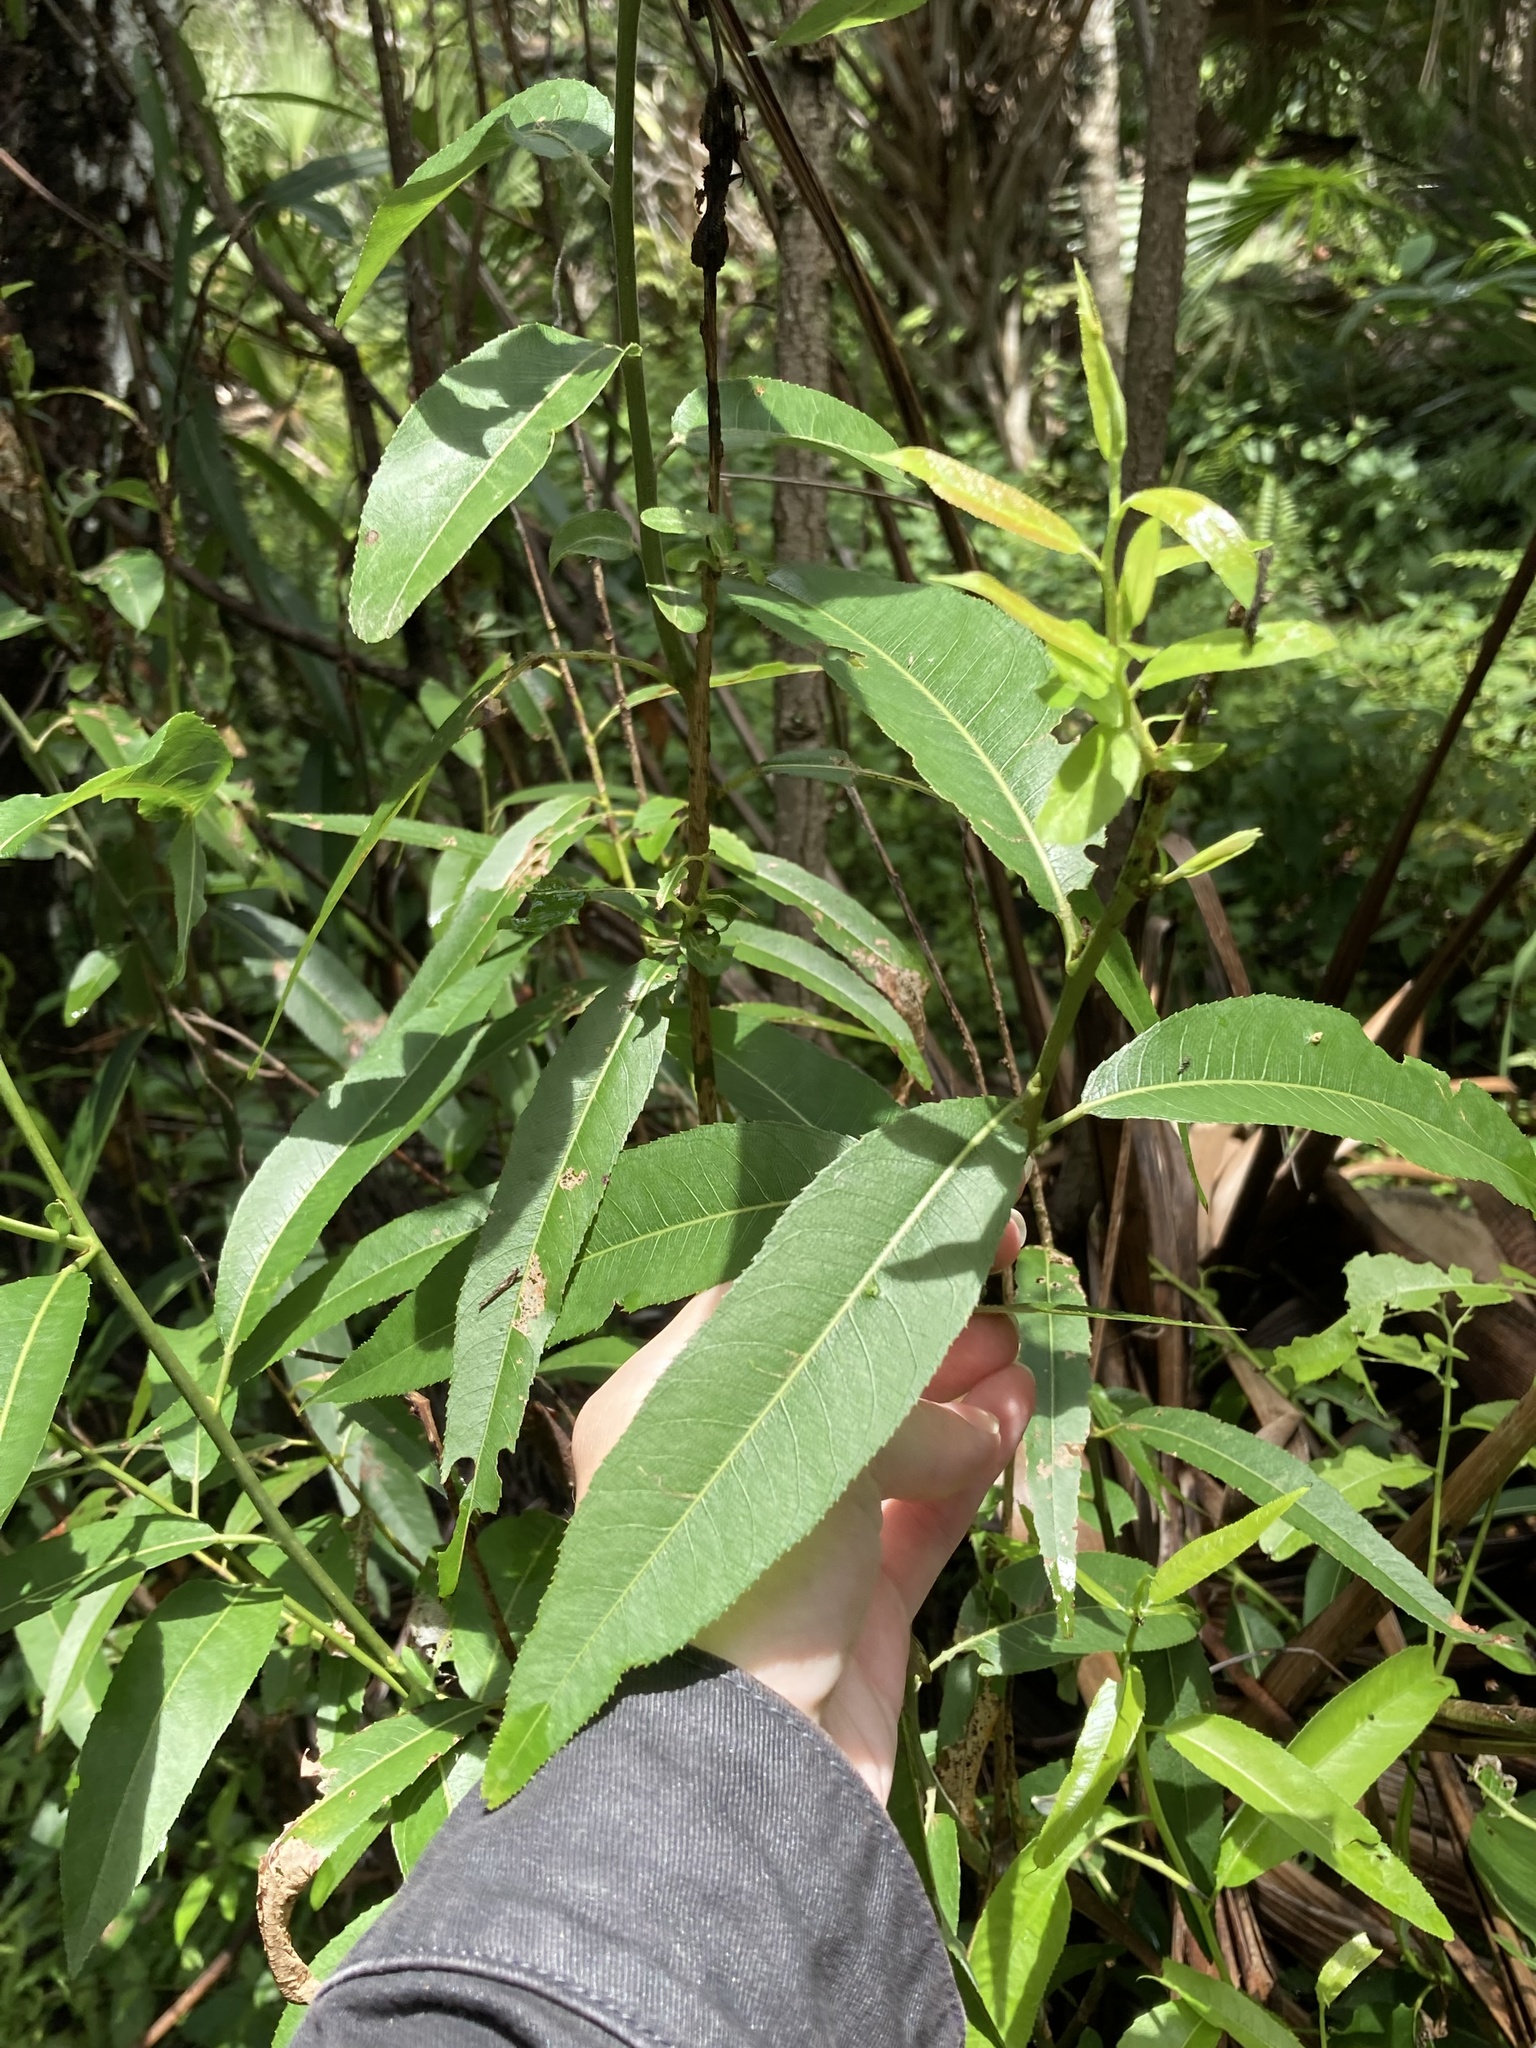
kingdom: Plantae
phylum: Tracheophyta
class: Magnoliopsida
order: Malpighiales
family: Salicaceae
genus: Salix
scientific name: Salix caroliniana
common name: Carolina willow
